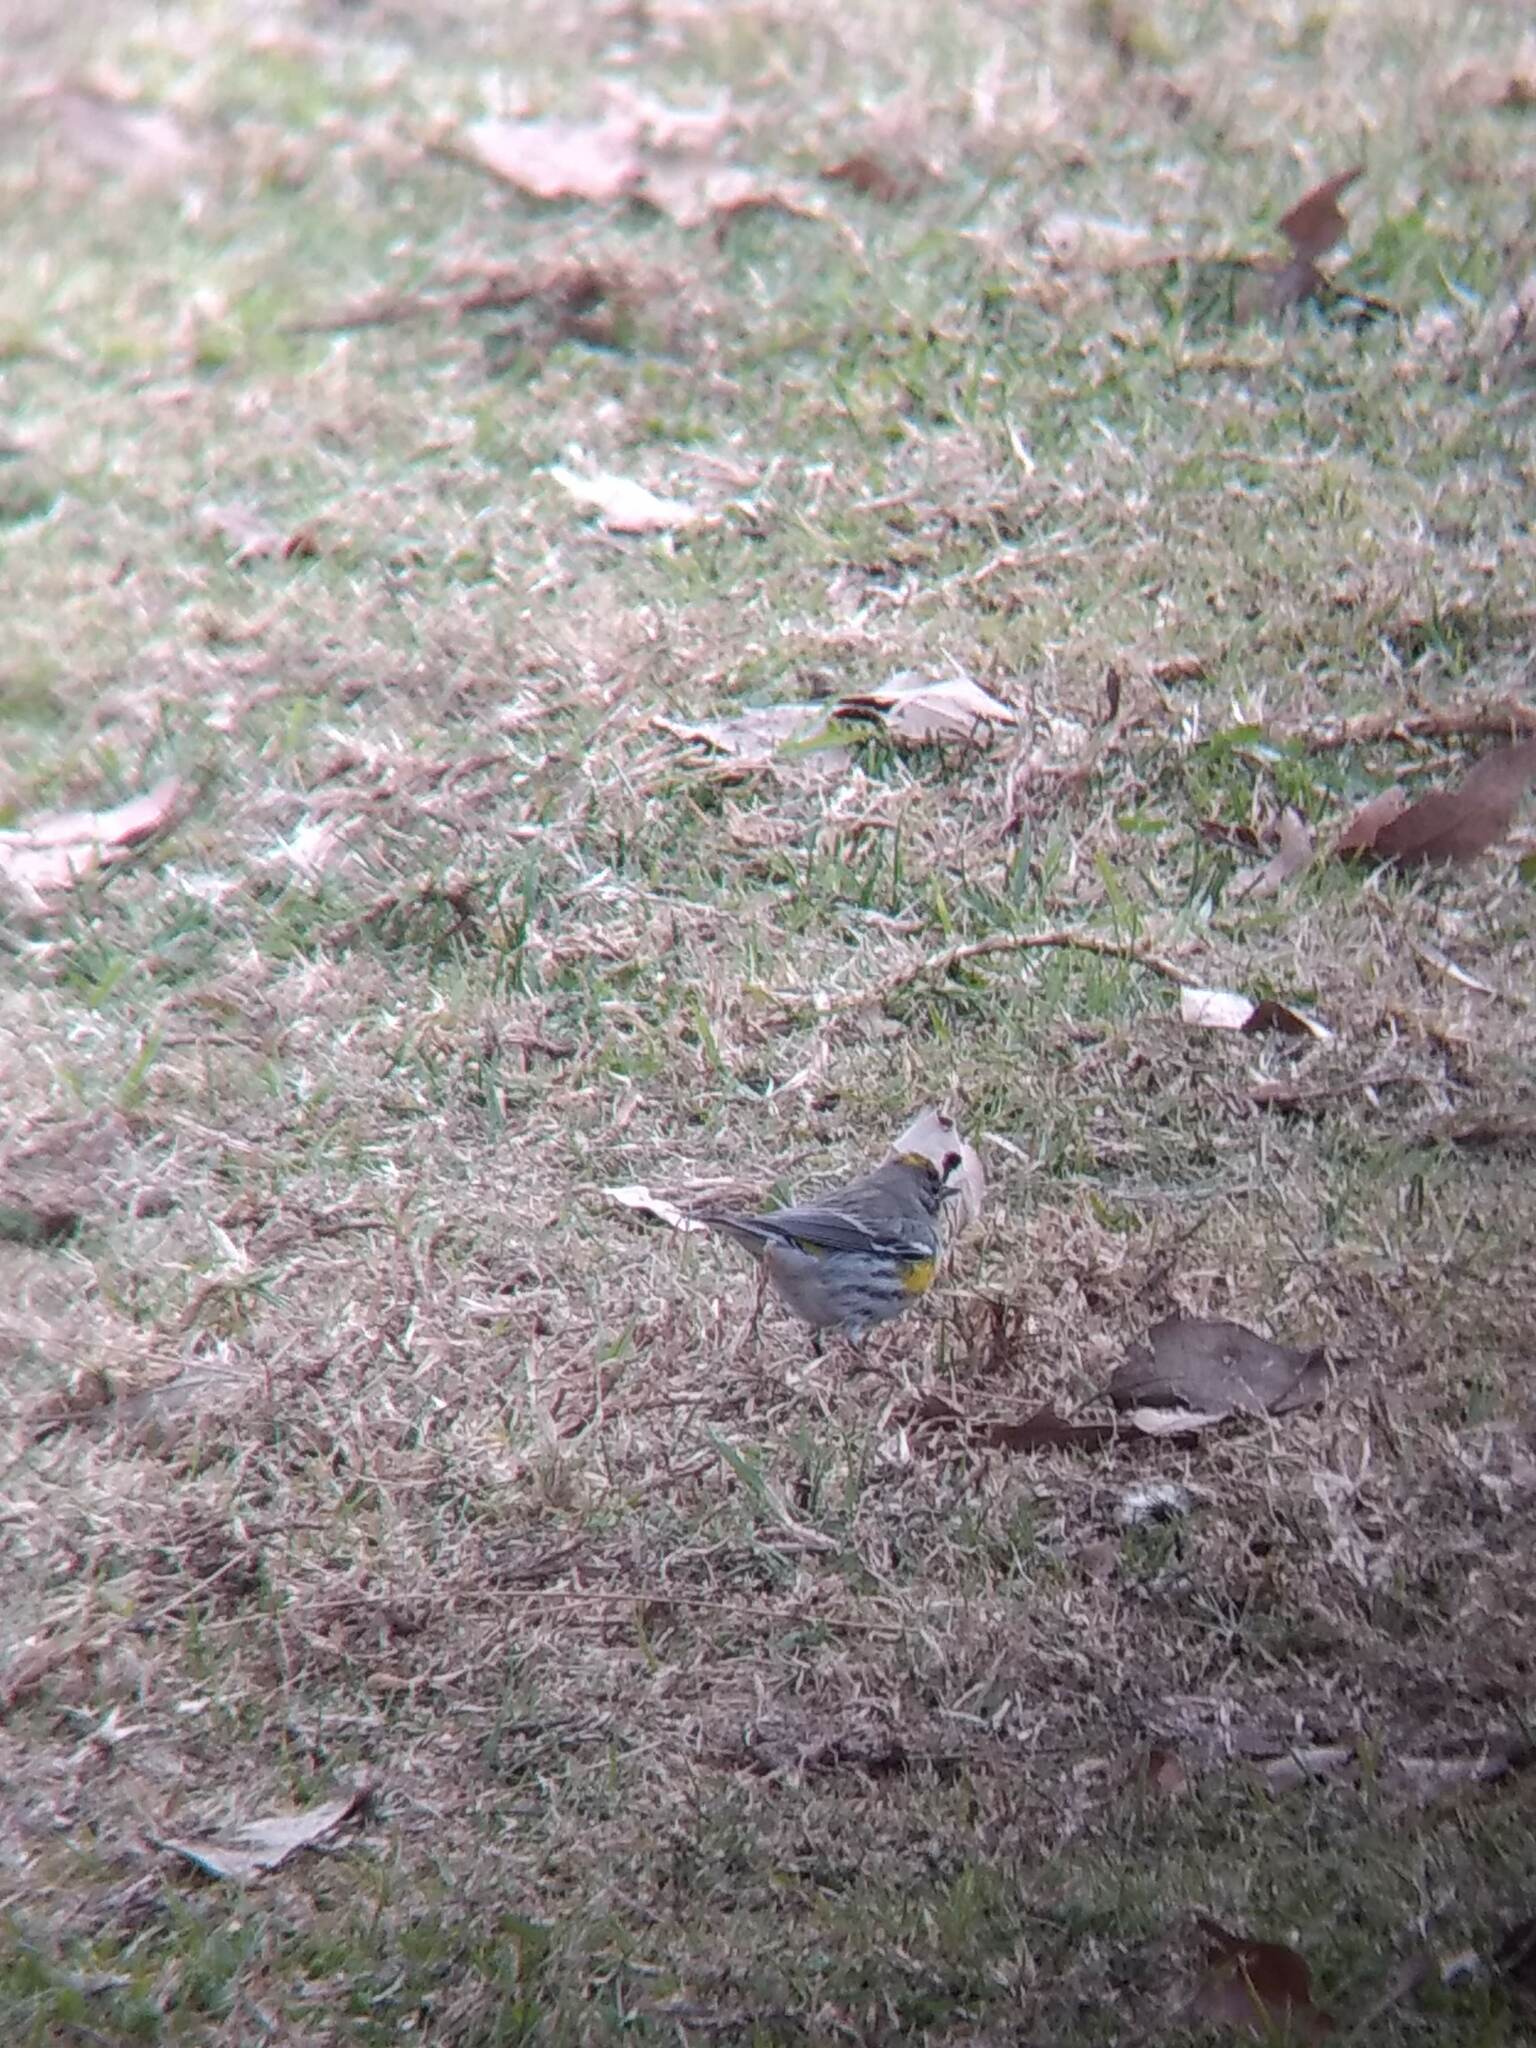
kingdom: Animalia
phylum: Chordata
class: Aves
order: Passeriformes
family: Parulidae
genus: Setophaga
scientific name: Setophaga coronata
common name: Myrtle warbler
